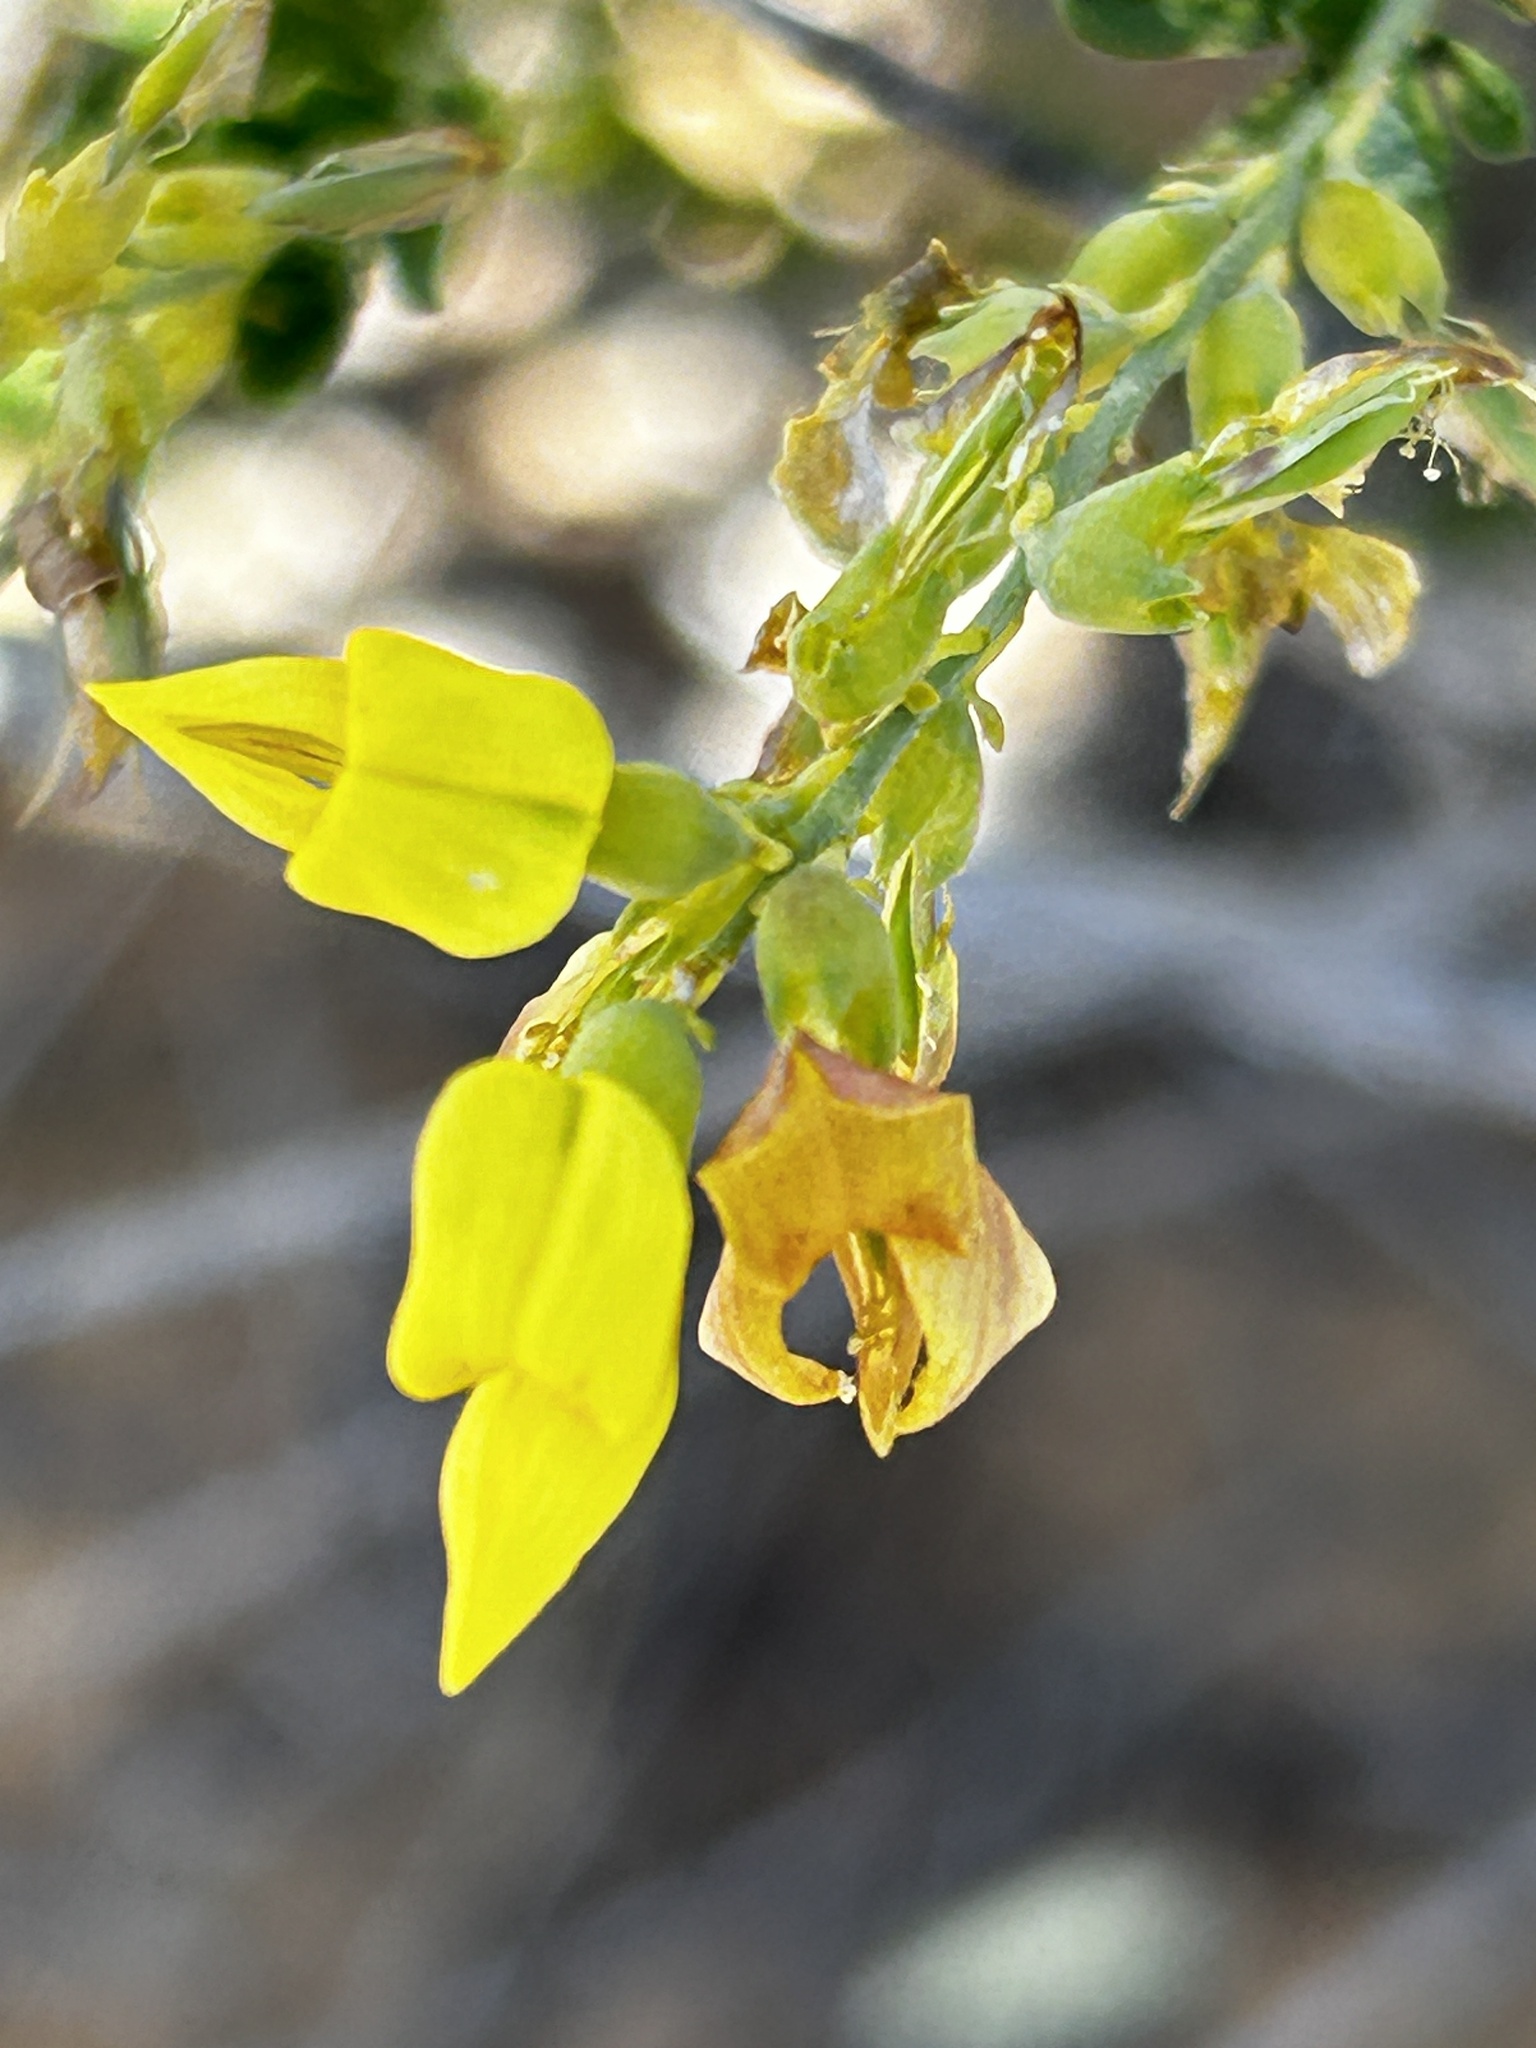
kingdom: Plantae
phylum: Tracheophyta
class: Magnoliopsida
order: Fabales
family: Fabaceae
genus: Wiborgia
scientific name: Wiborgia obcordata
